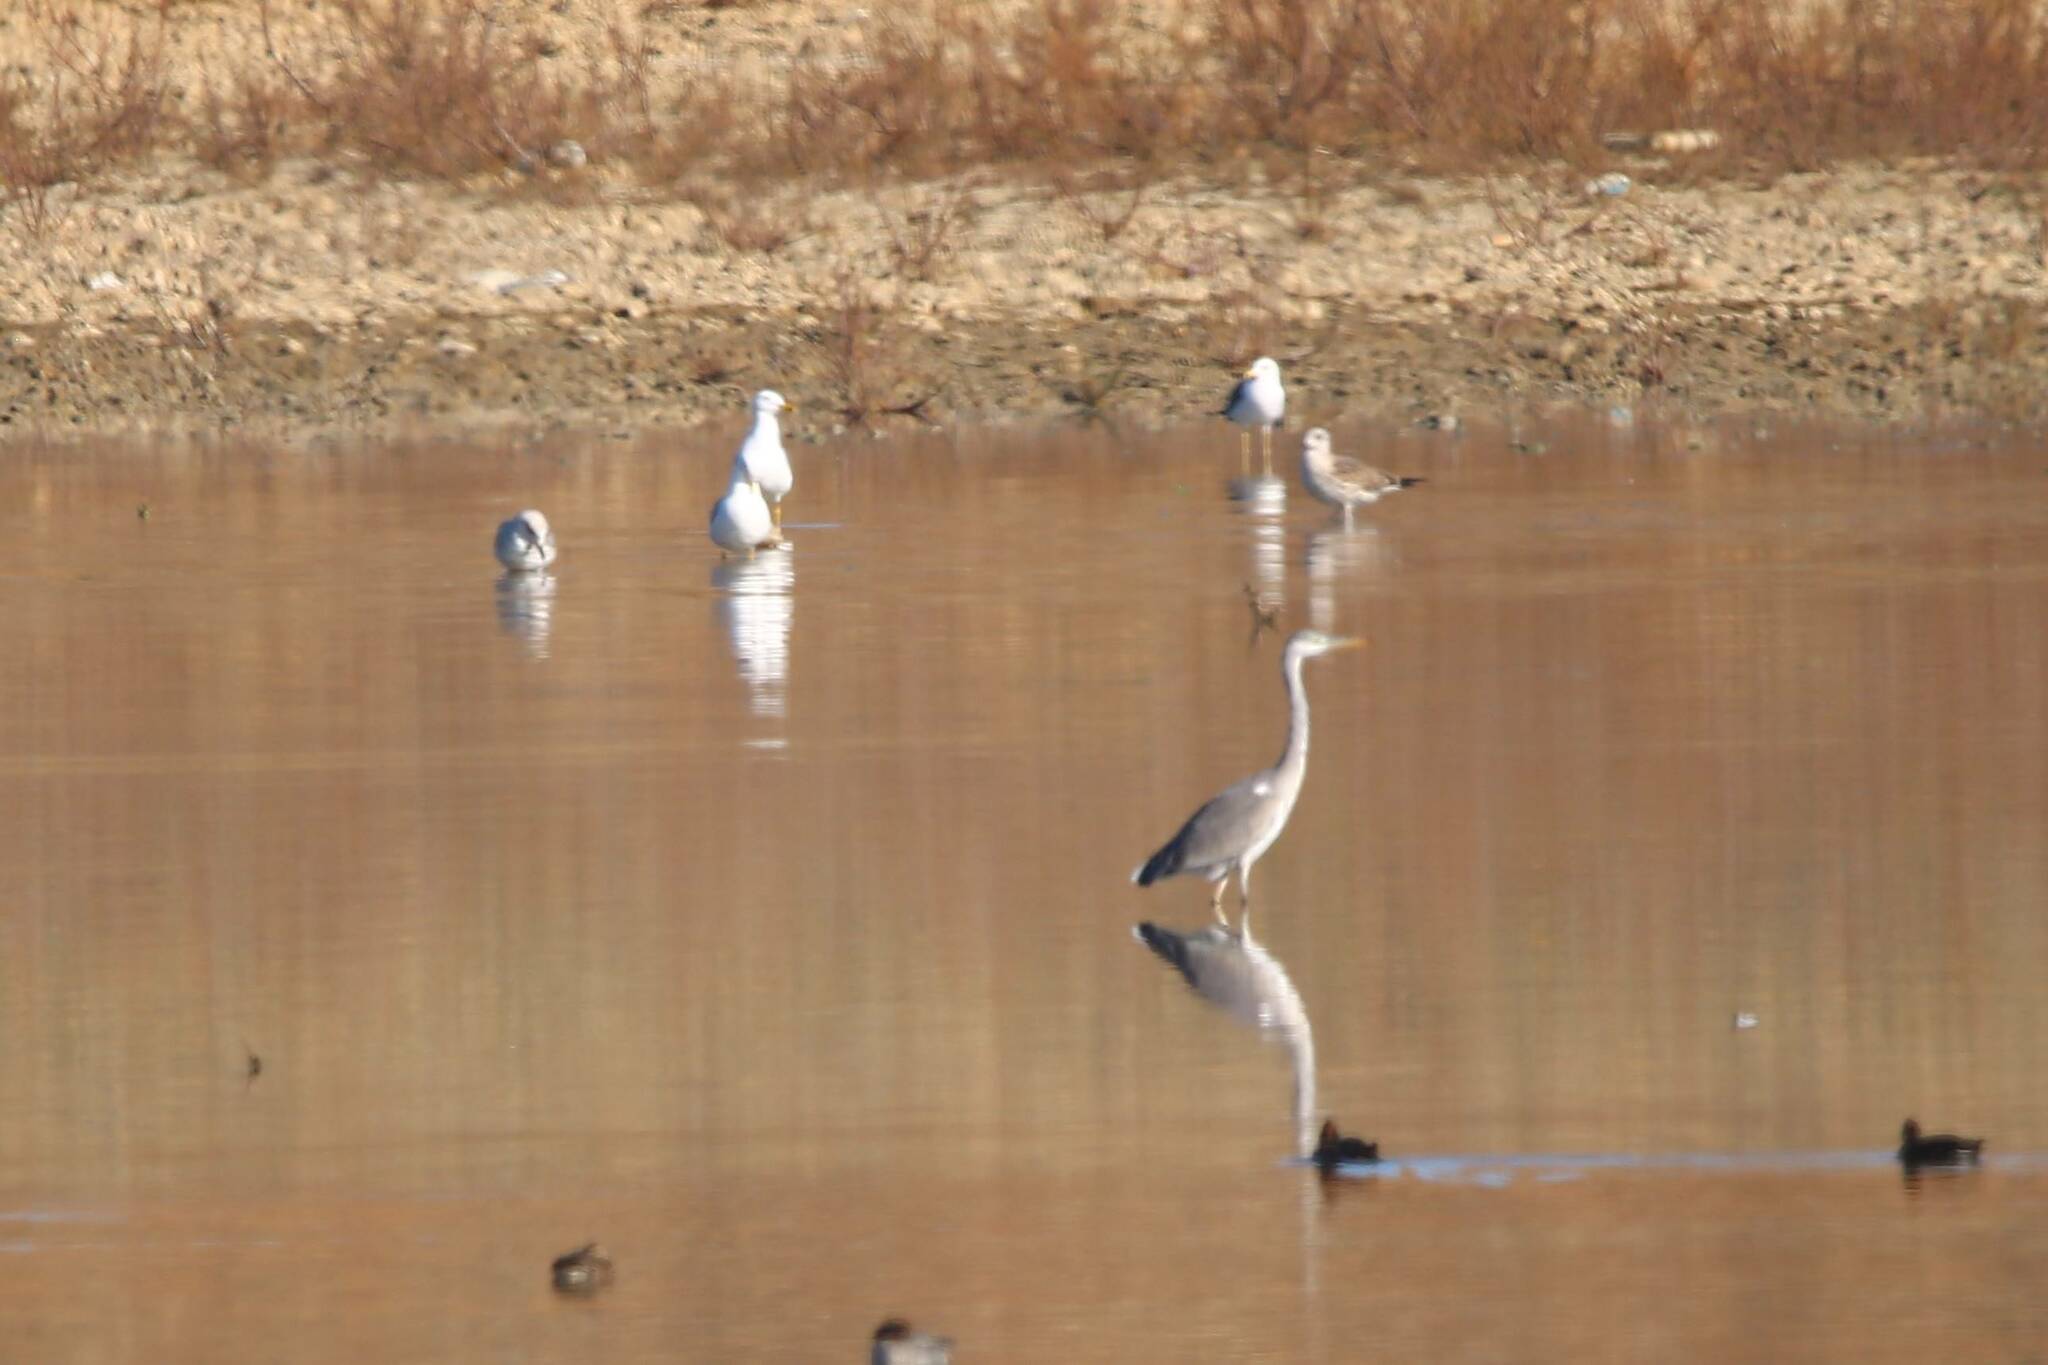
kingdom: Animalia
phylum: Chordata
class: Aves
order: Pelecaniformes
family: Ardeidae
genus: Ardea
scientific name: Ardea cinerea
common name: Grey heron
